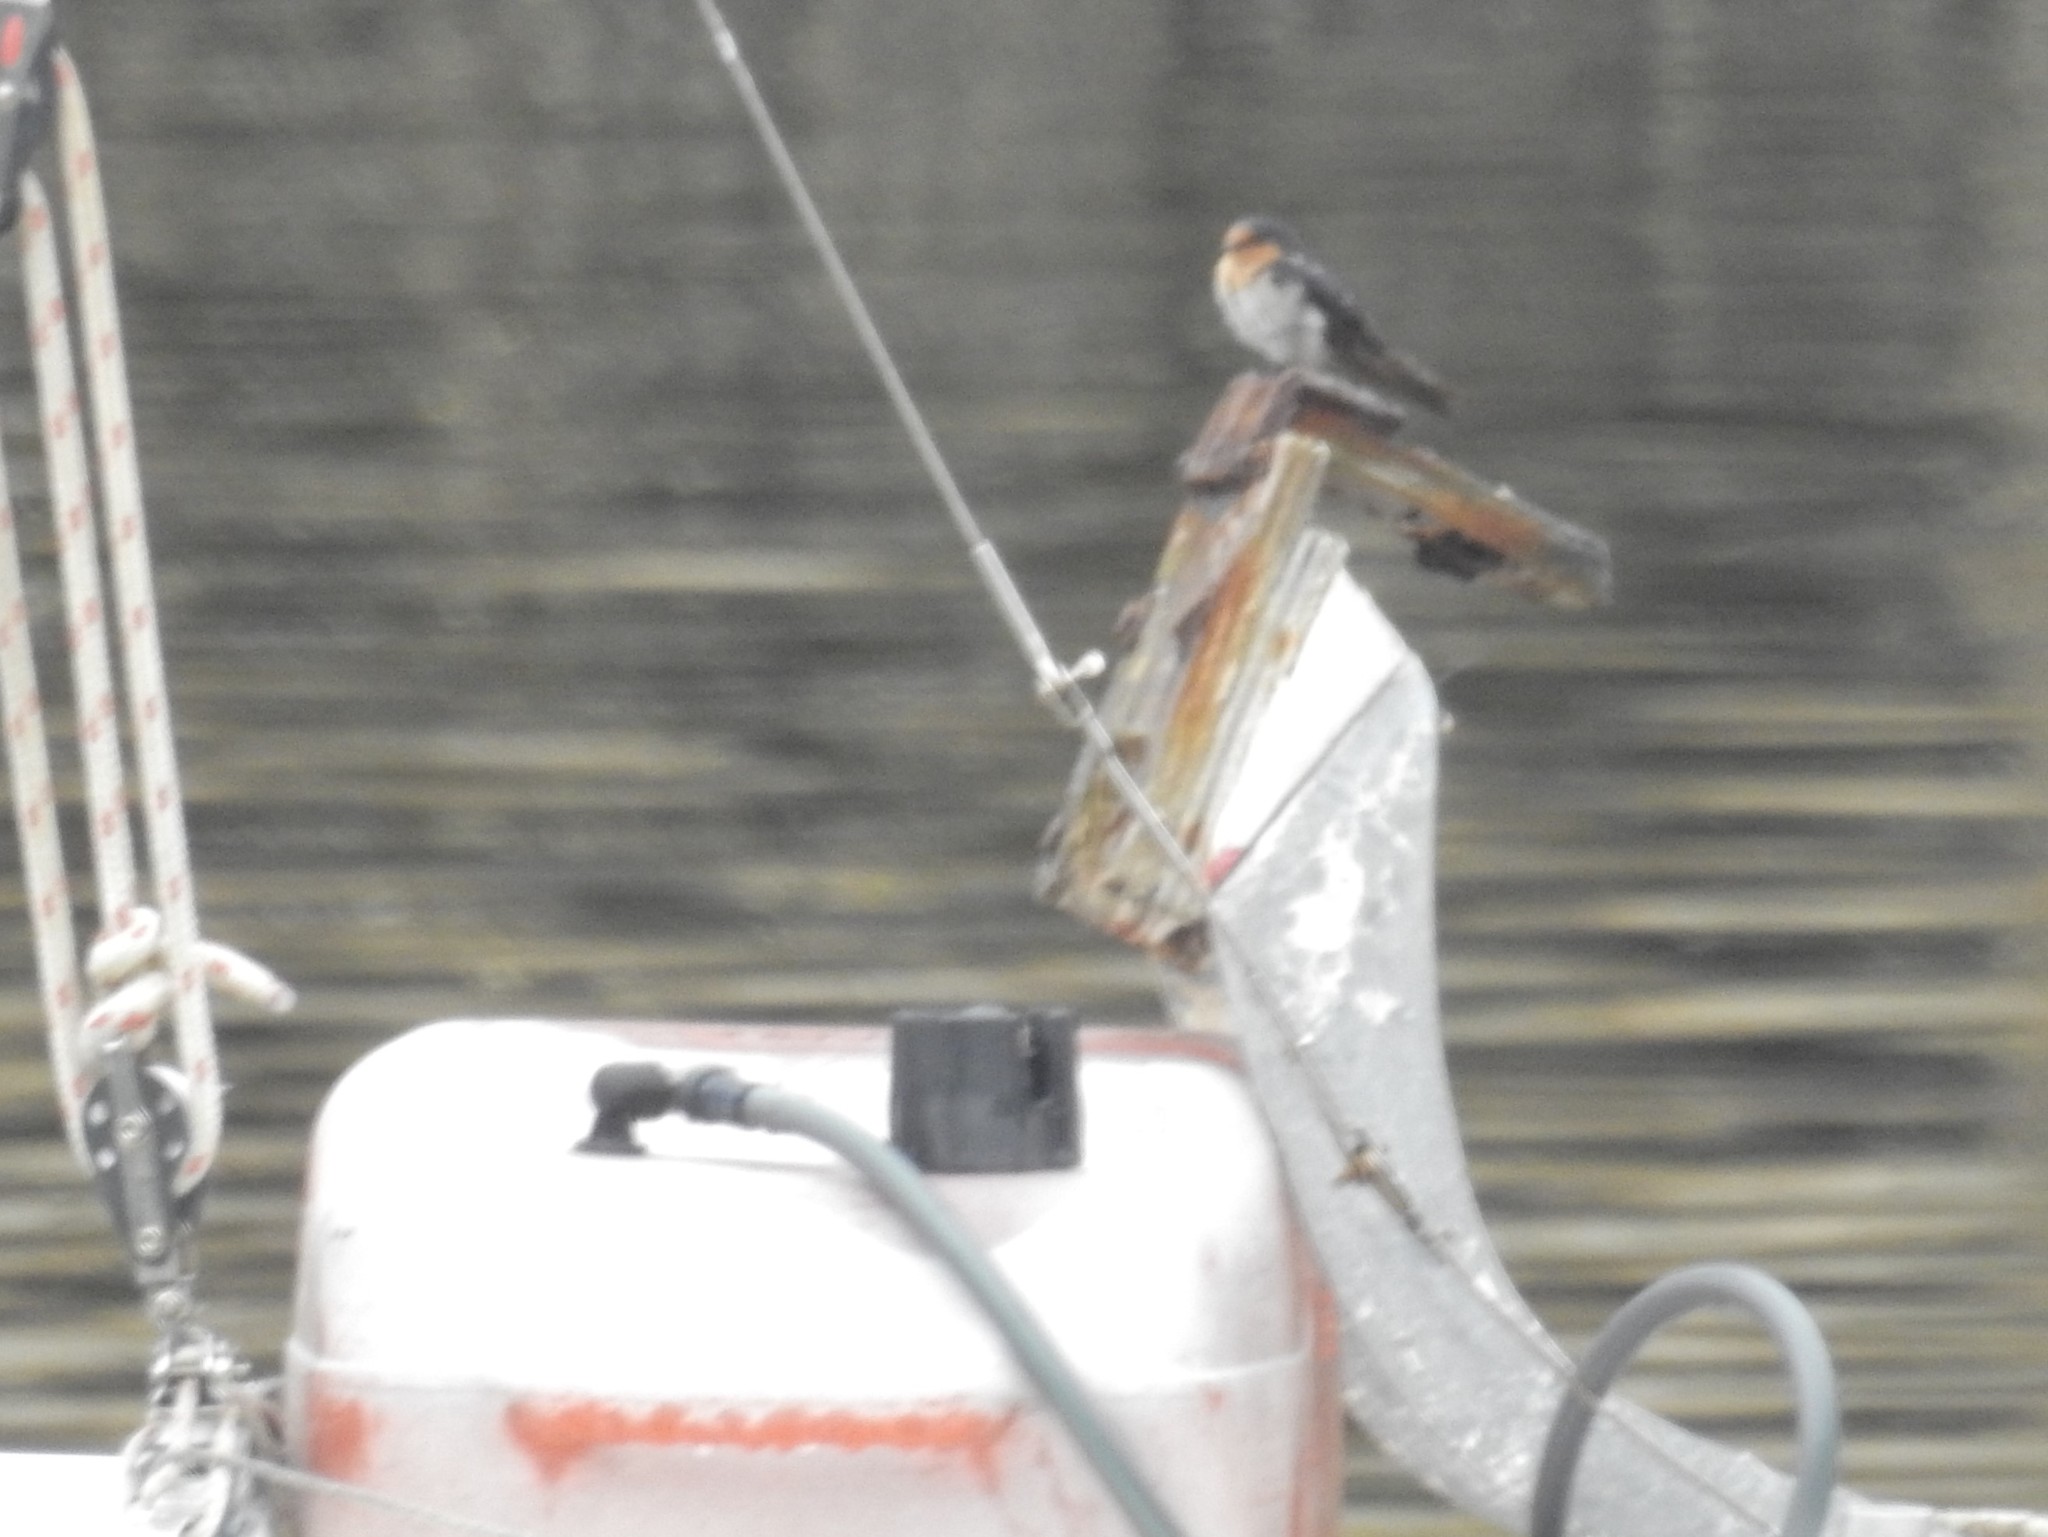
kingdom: Animalia
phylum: Chordata
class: Aves
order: Passeriformes
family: Hirundinidae
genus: Hirundo
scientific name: Hirundo neoxena
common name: Welcome swallow
